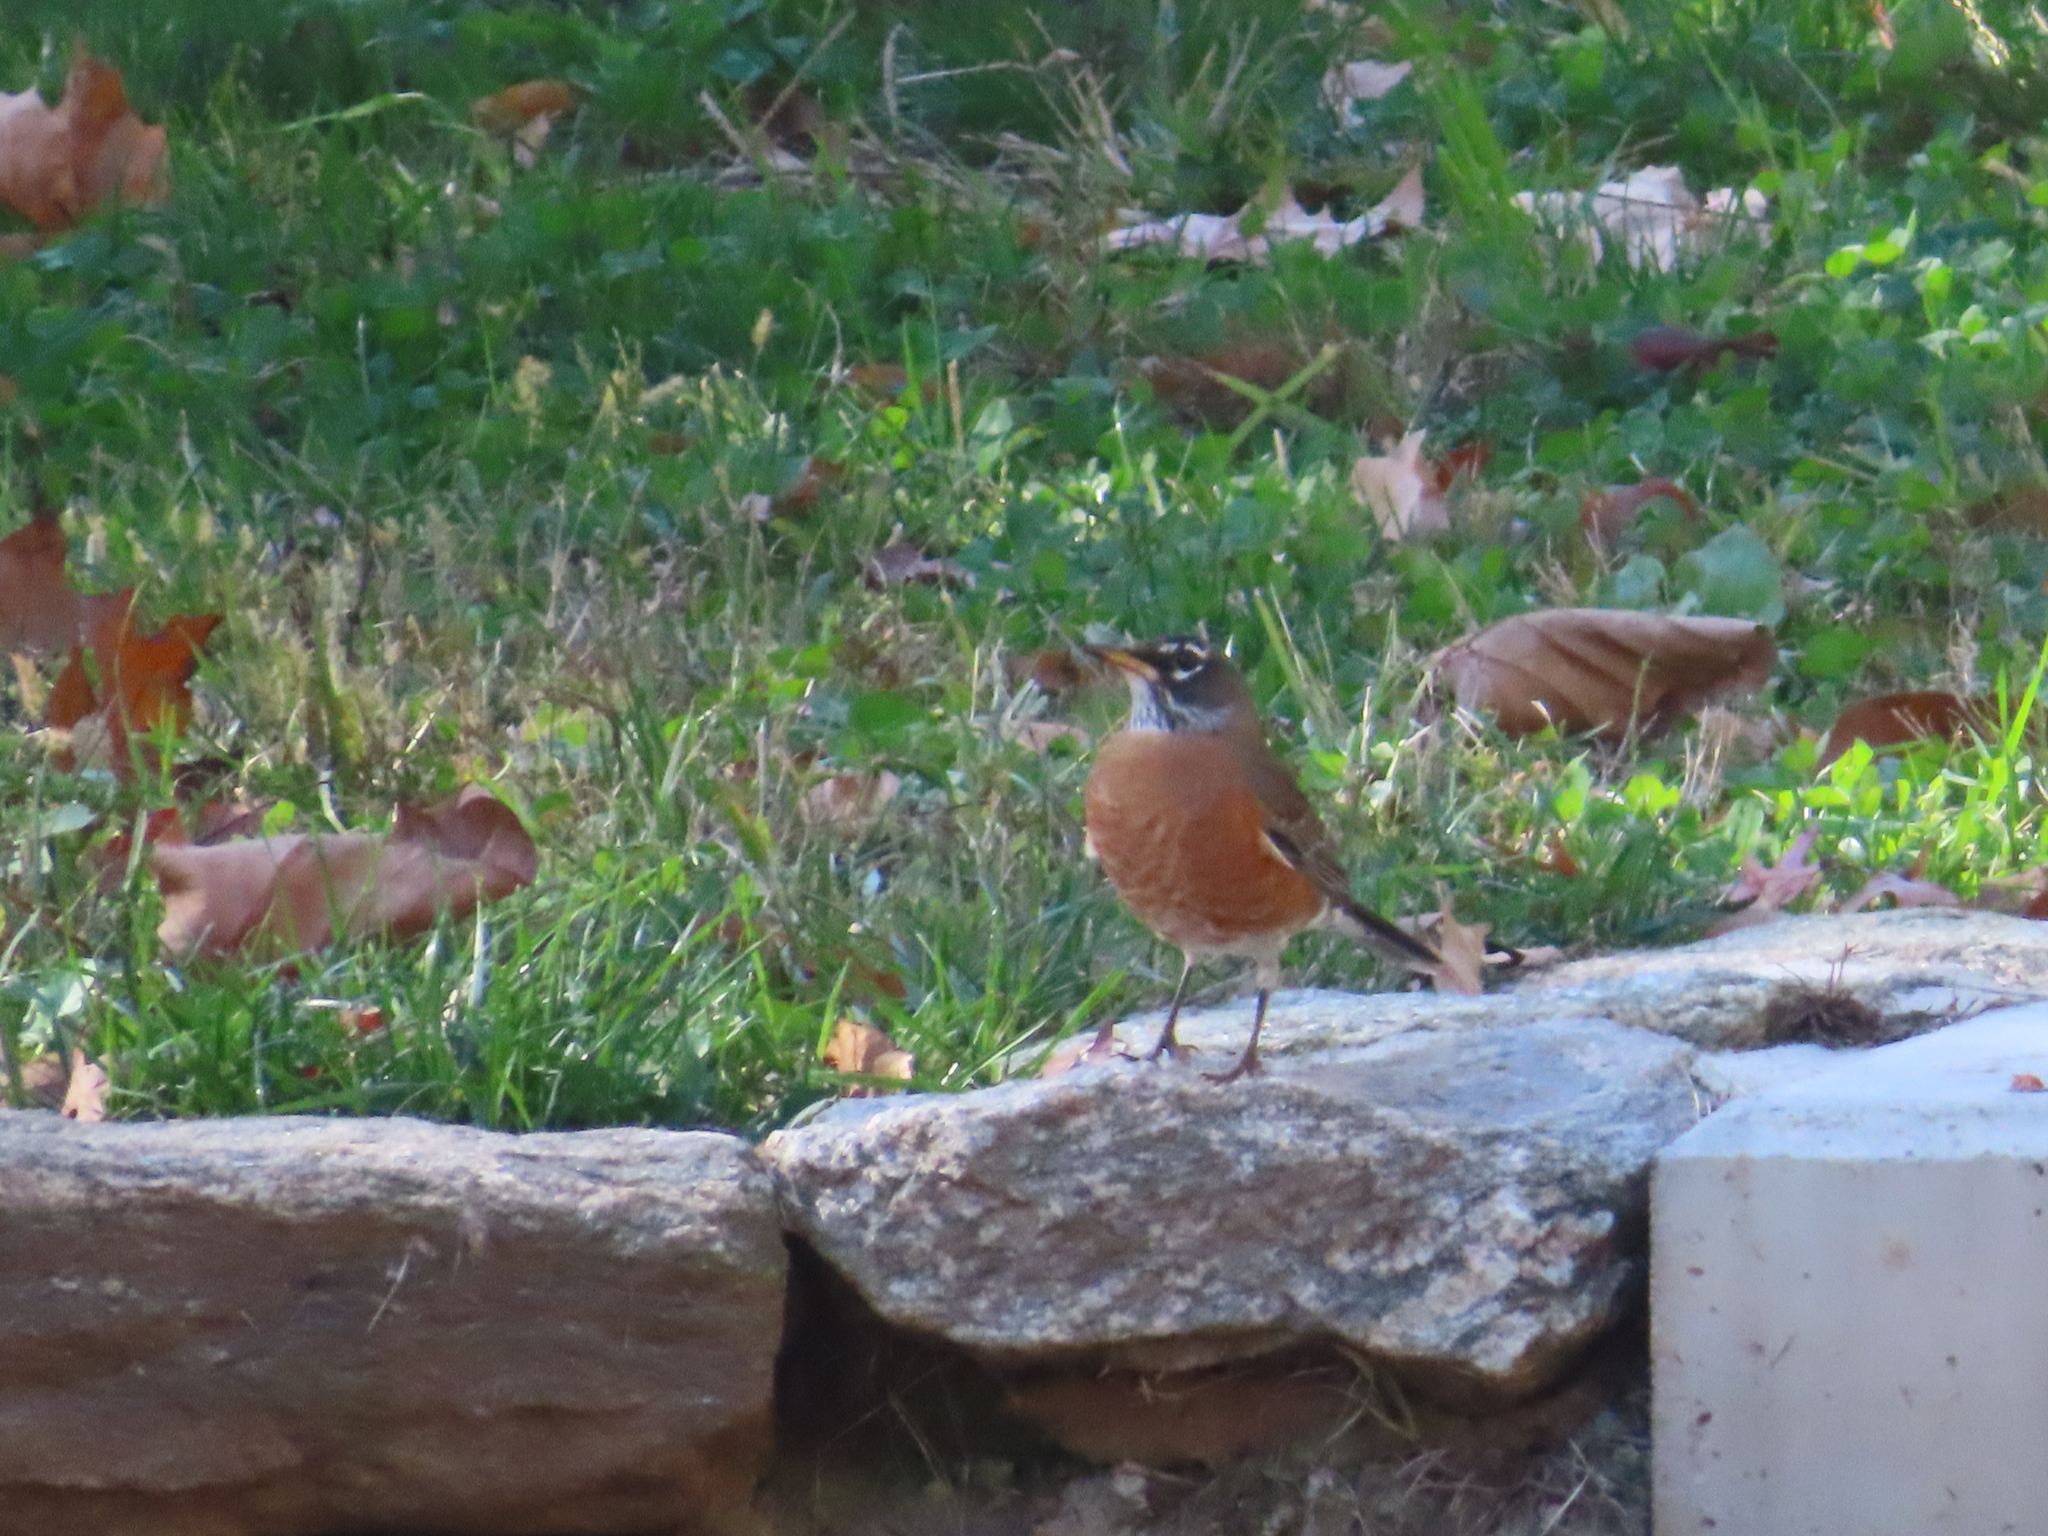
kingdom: Animalia
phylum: Chordata
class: Aves
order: Passeriformes
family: Turdidae
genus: Turdus
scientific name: Turdus migratorius
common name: American robin
